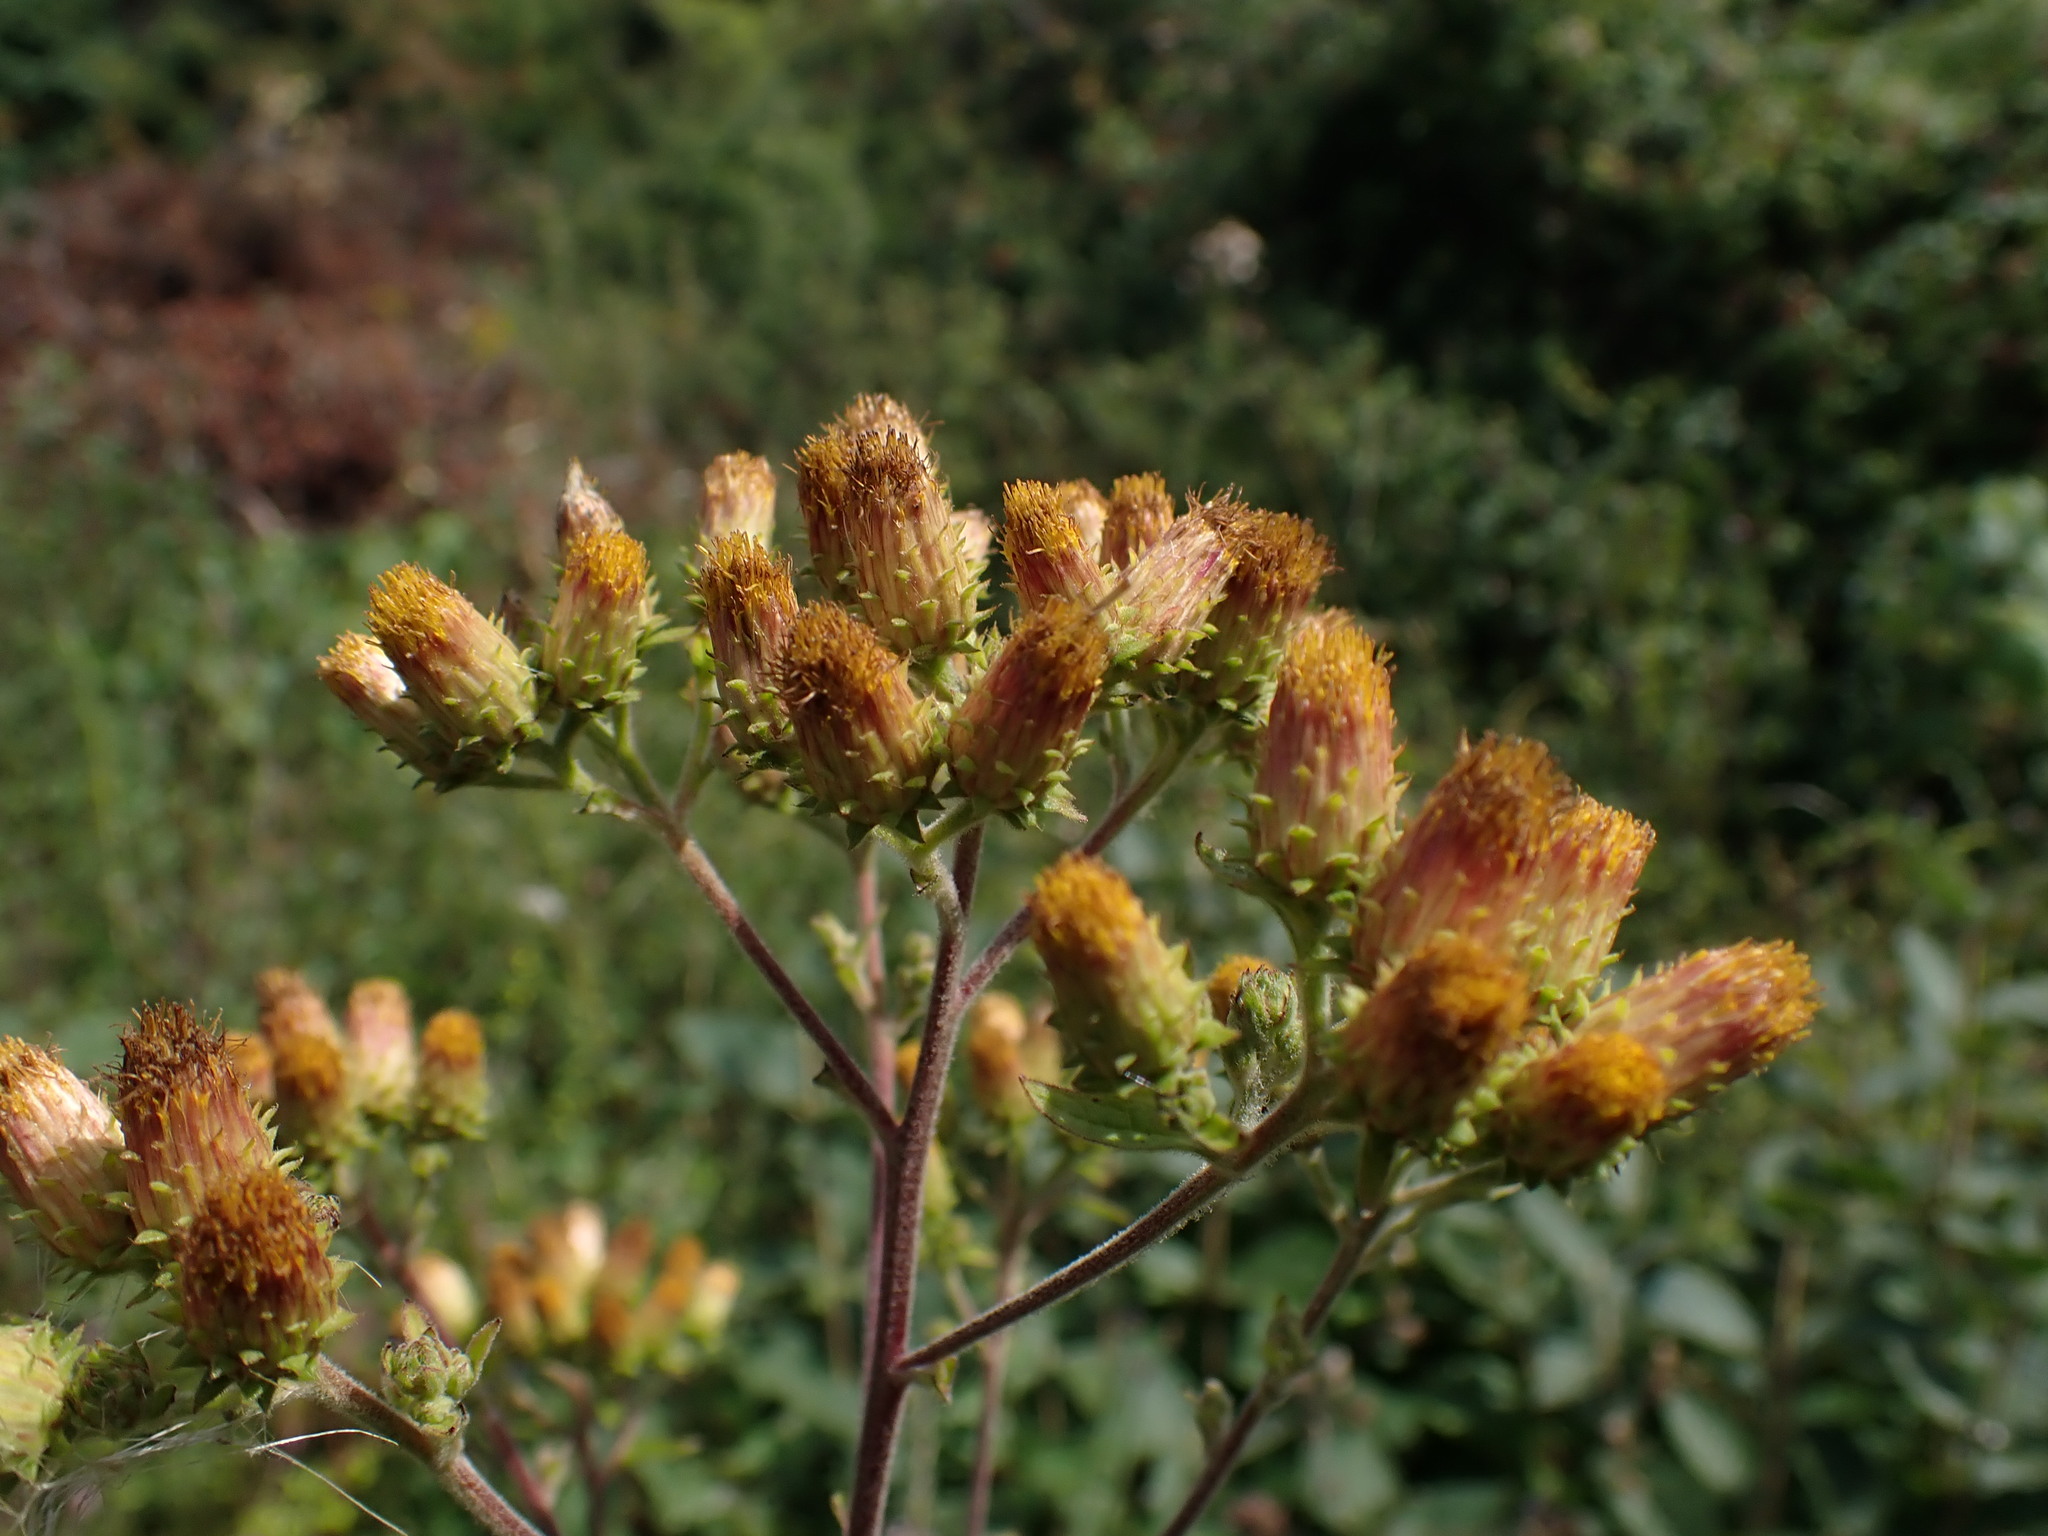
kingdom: Plantae
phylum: Tracheophyta
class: Magnoliopsida
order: Asterales
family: Asteraceae
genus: Pentanema
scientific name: Pentanema squarrosum
